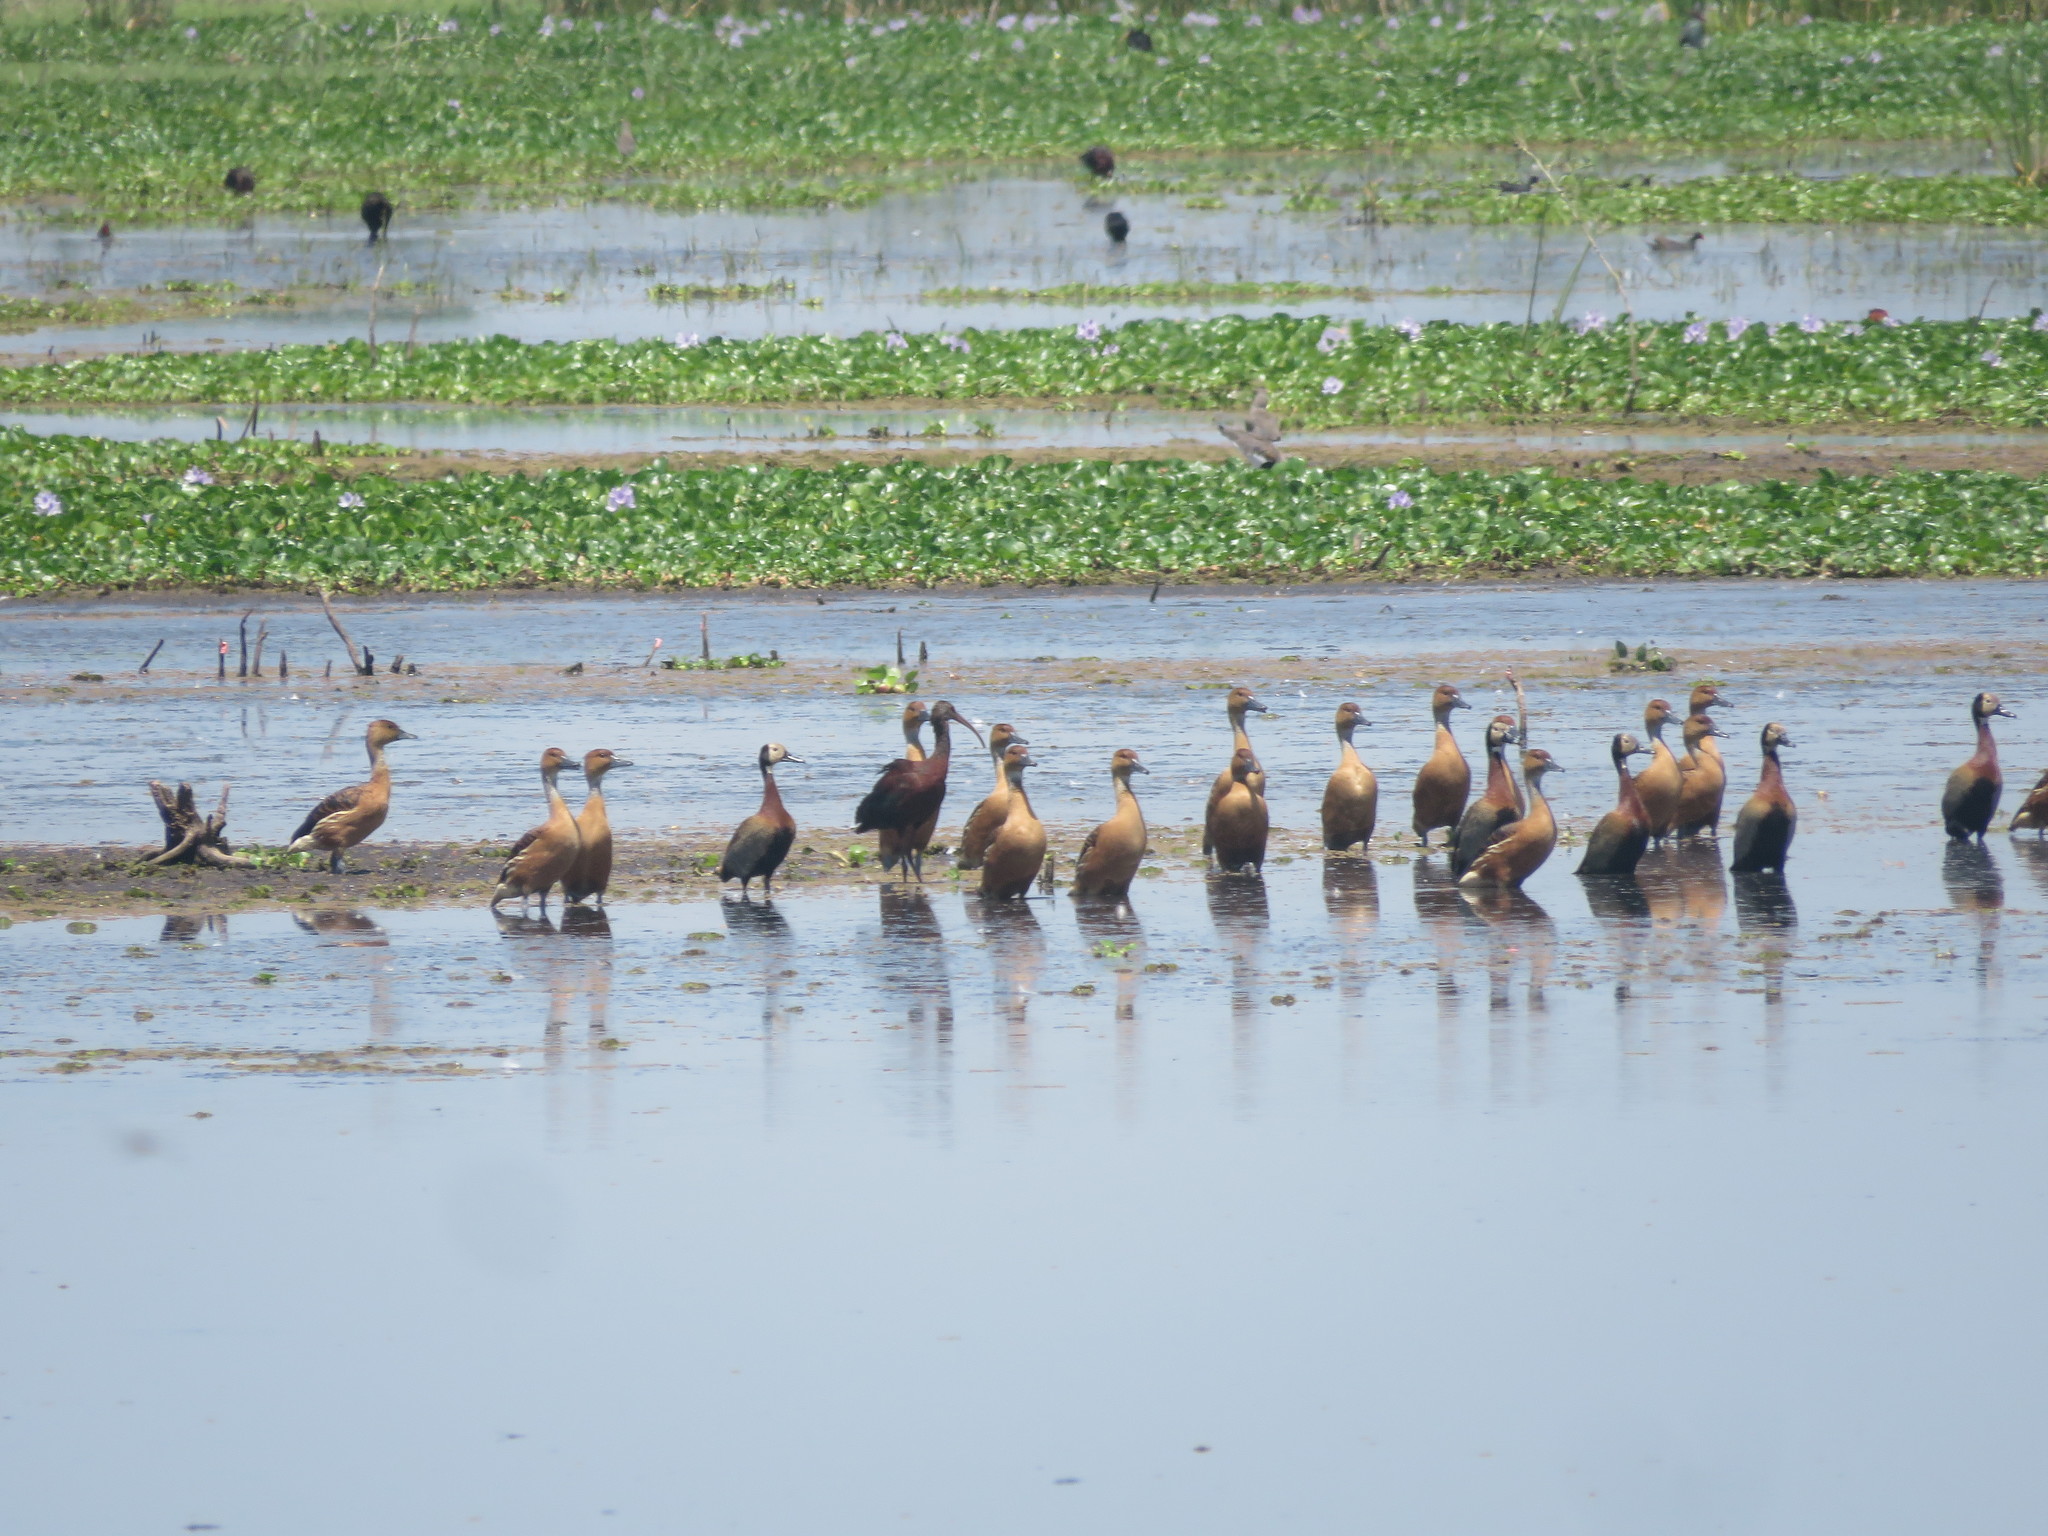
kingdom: Animalia
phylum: Chordata
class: Aves
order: Anseriformes
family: Anatidae
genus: Dendrocygna
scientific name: Dendrocygna bicolor
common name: Fulvous whistling duck
